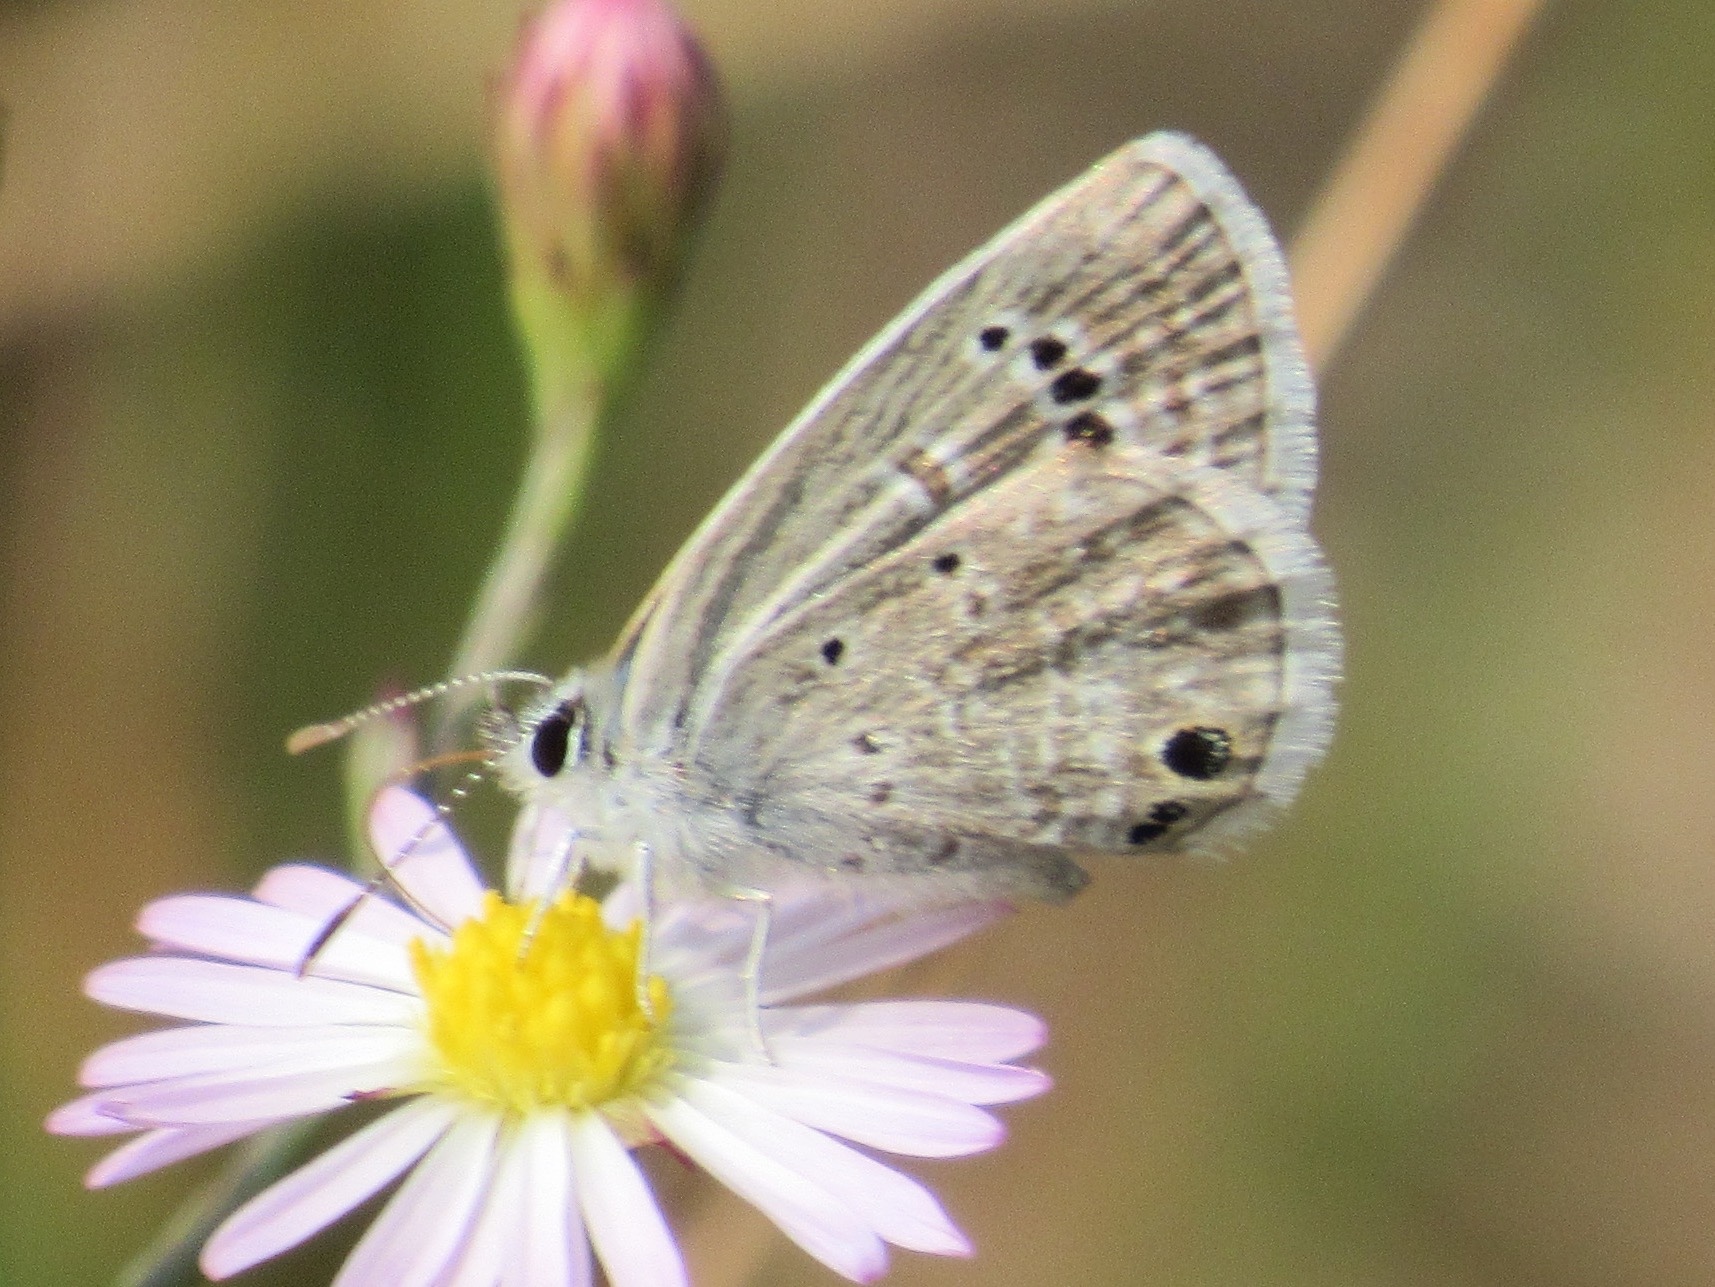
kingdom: Animalia
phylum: Arthropoda
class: Insecta
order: Lepidoptera
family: Lycaenidae
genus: Echinargus
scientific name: Echinargus isola
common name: Reakirt's blue
